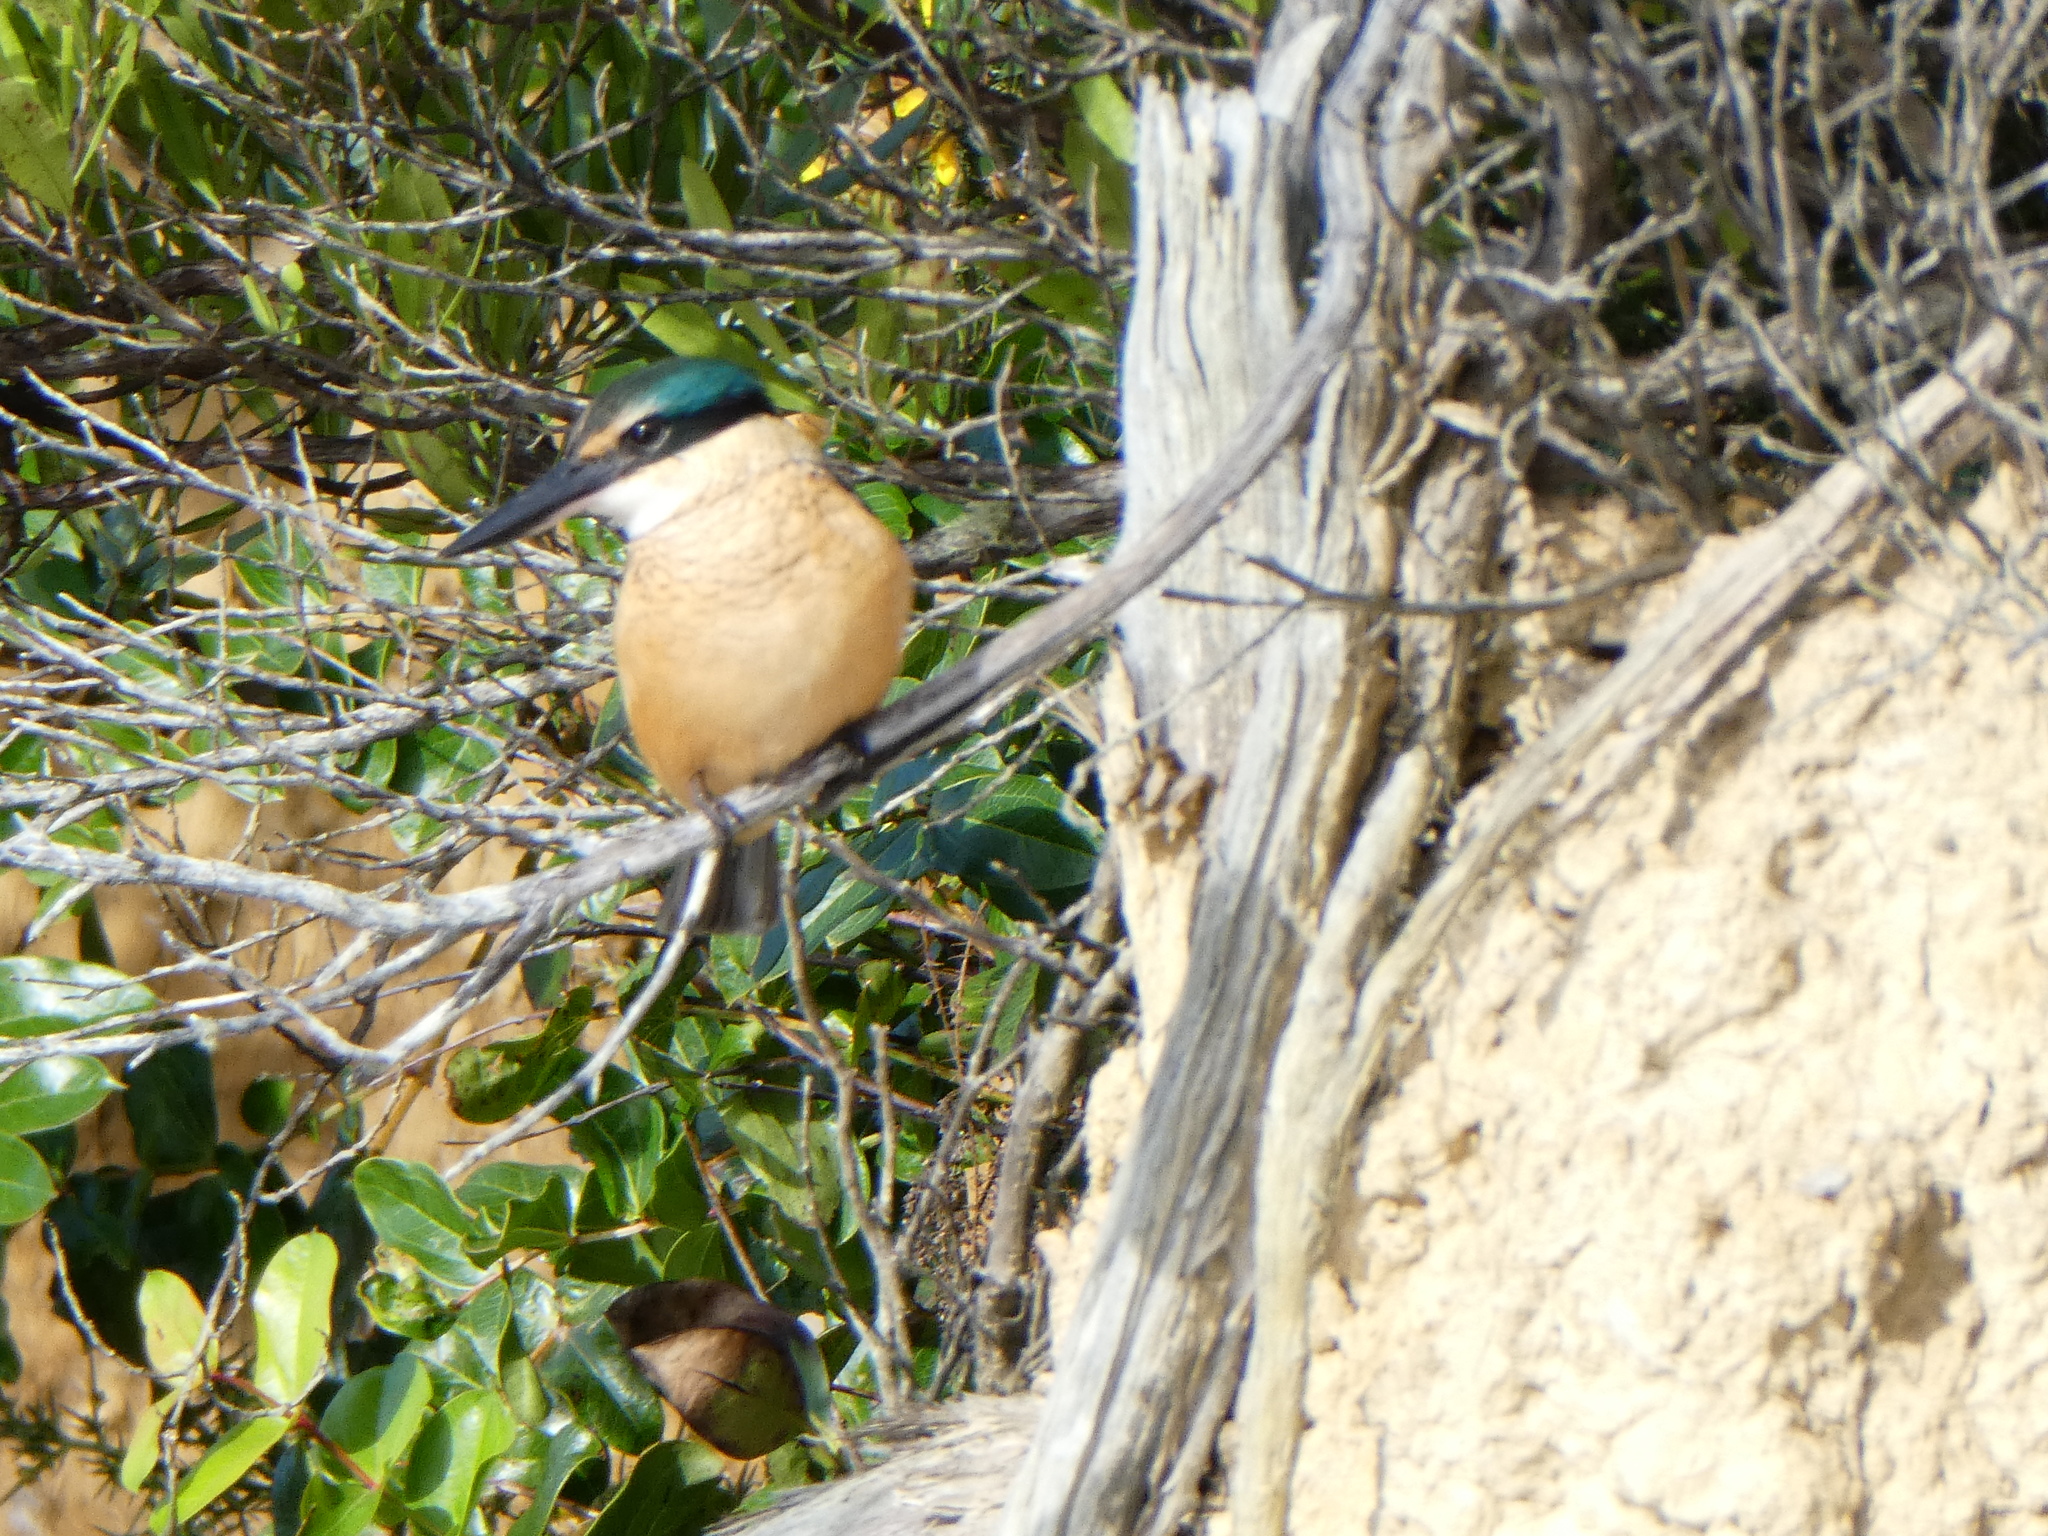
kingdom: Animalia
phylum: Chordata
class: Aves
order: Coraciiformes
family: Alcedinidae
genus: Todiramphus
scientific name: Todiramphus sanctus
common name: Sacred kingfisher
